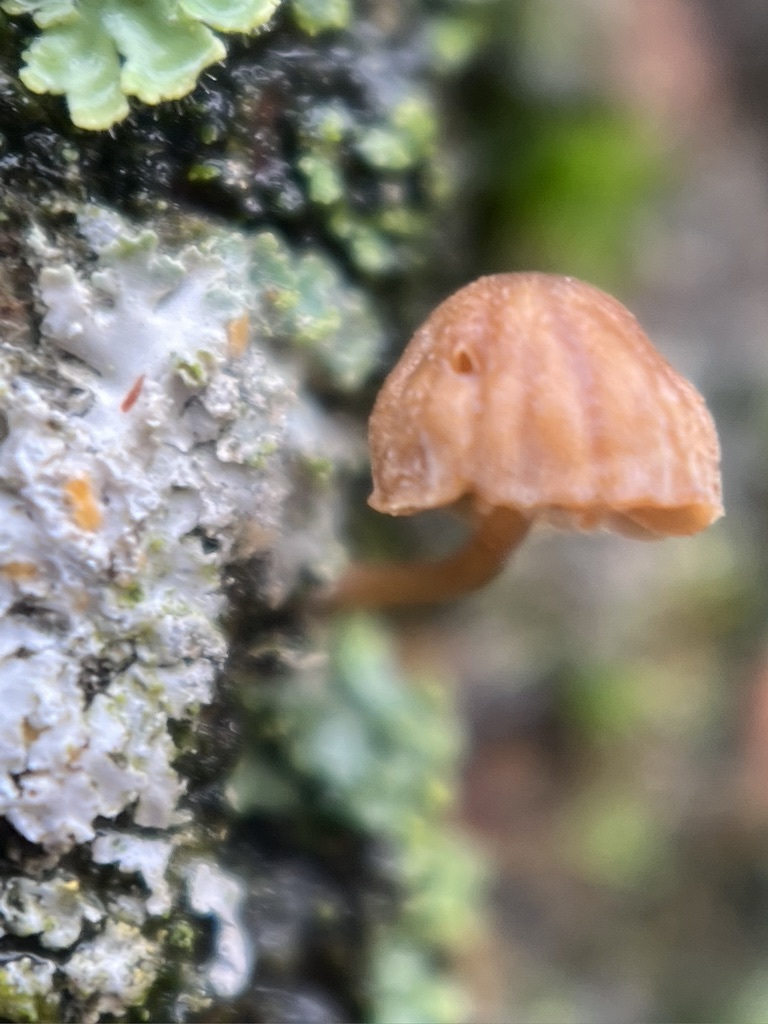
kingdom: Fungi
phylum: Basidiomycota
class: Agaricomycetes
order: Agaricales
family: Mycenaceae
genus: Mycena
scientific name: Mycena corticola
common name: Bark mycena
